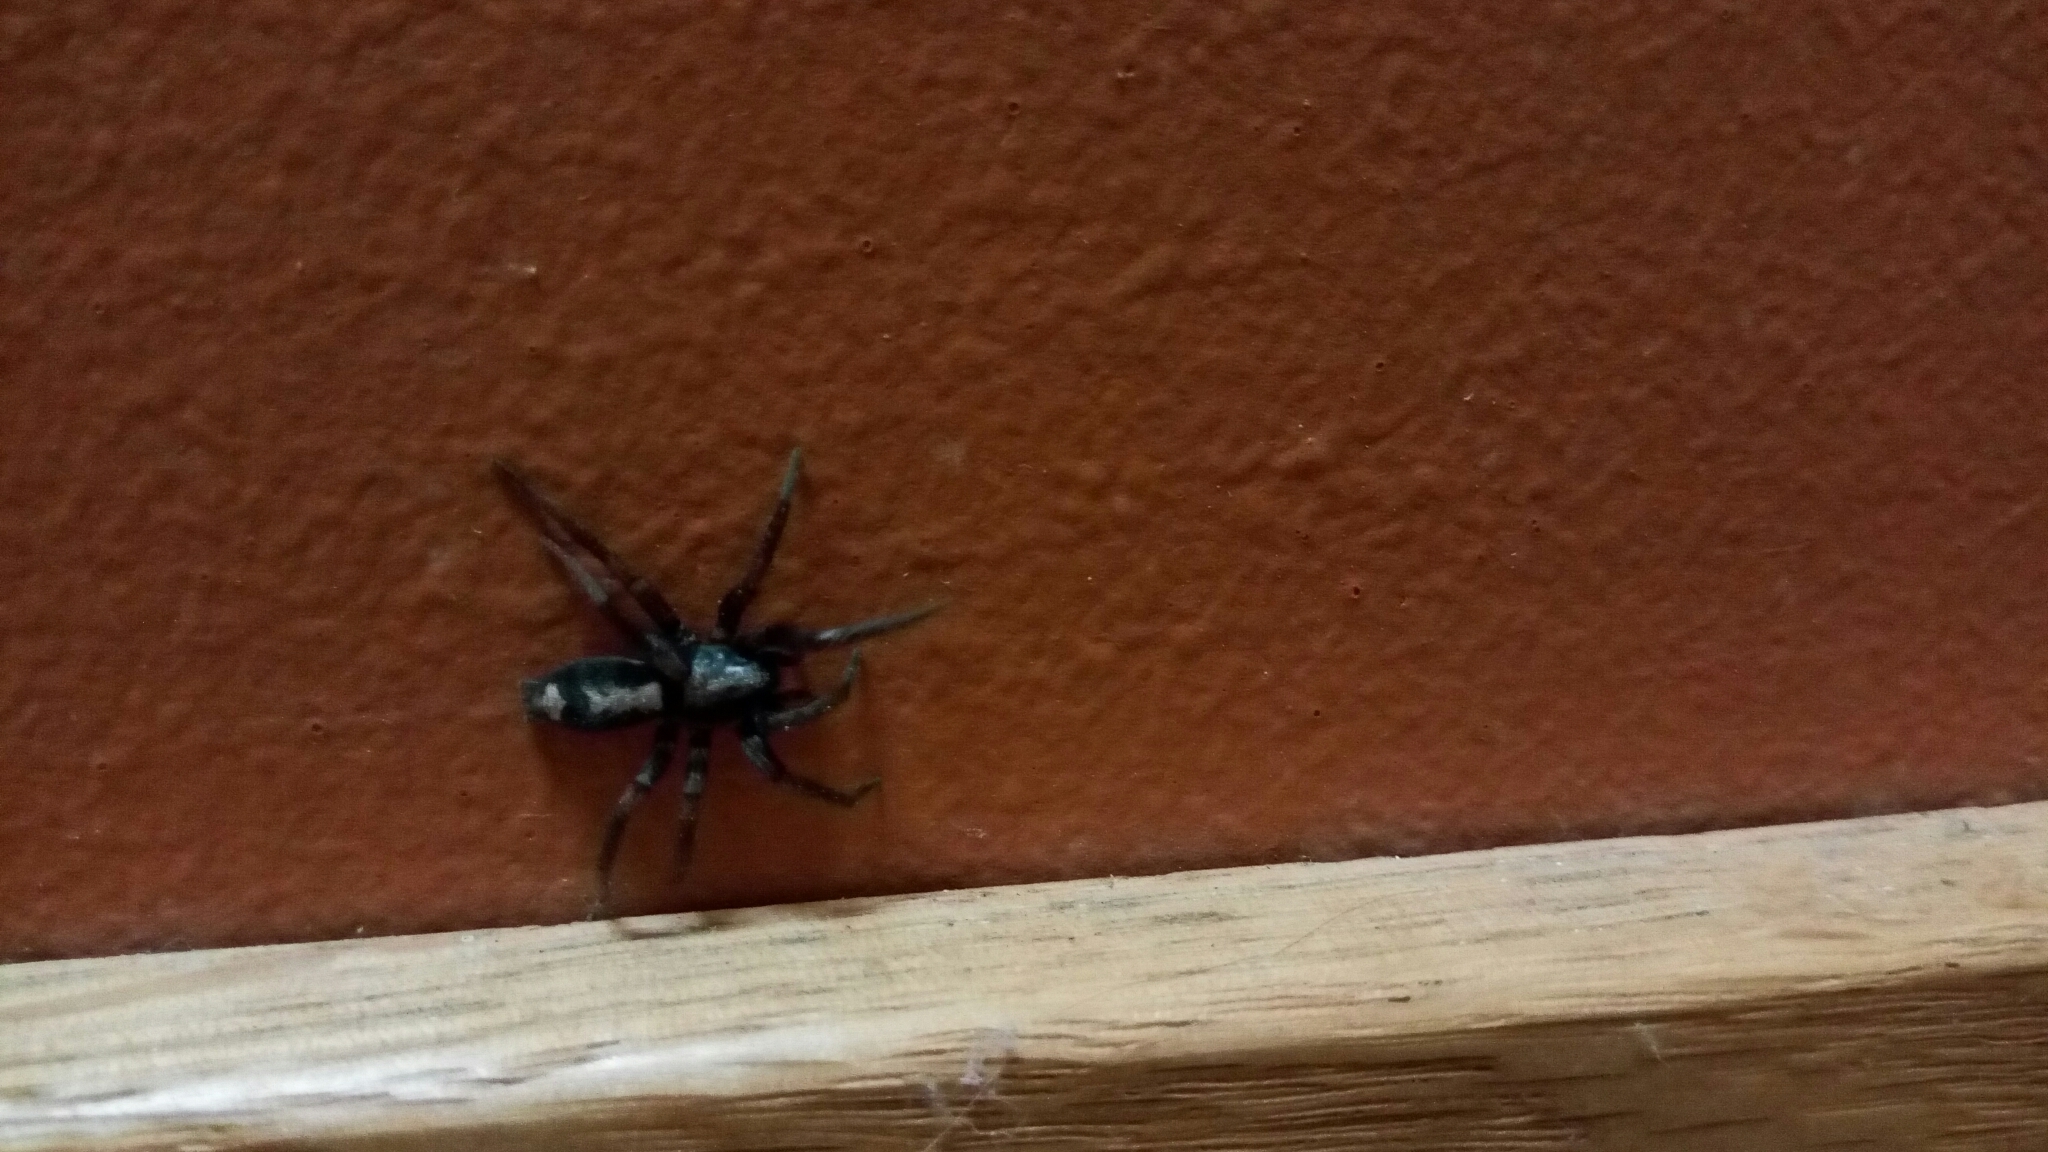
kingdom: Animalia
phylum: Arthropoda
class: Arachnida
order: Araneae
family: Gnaphosidae
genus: Herpyllus
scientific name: Herpyllus ecclesiasticus
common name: Eastern parson spider
